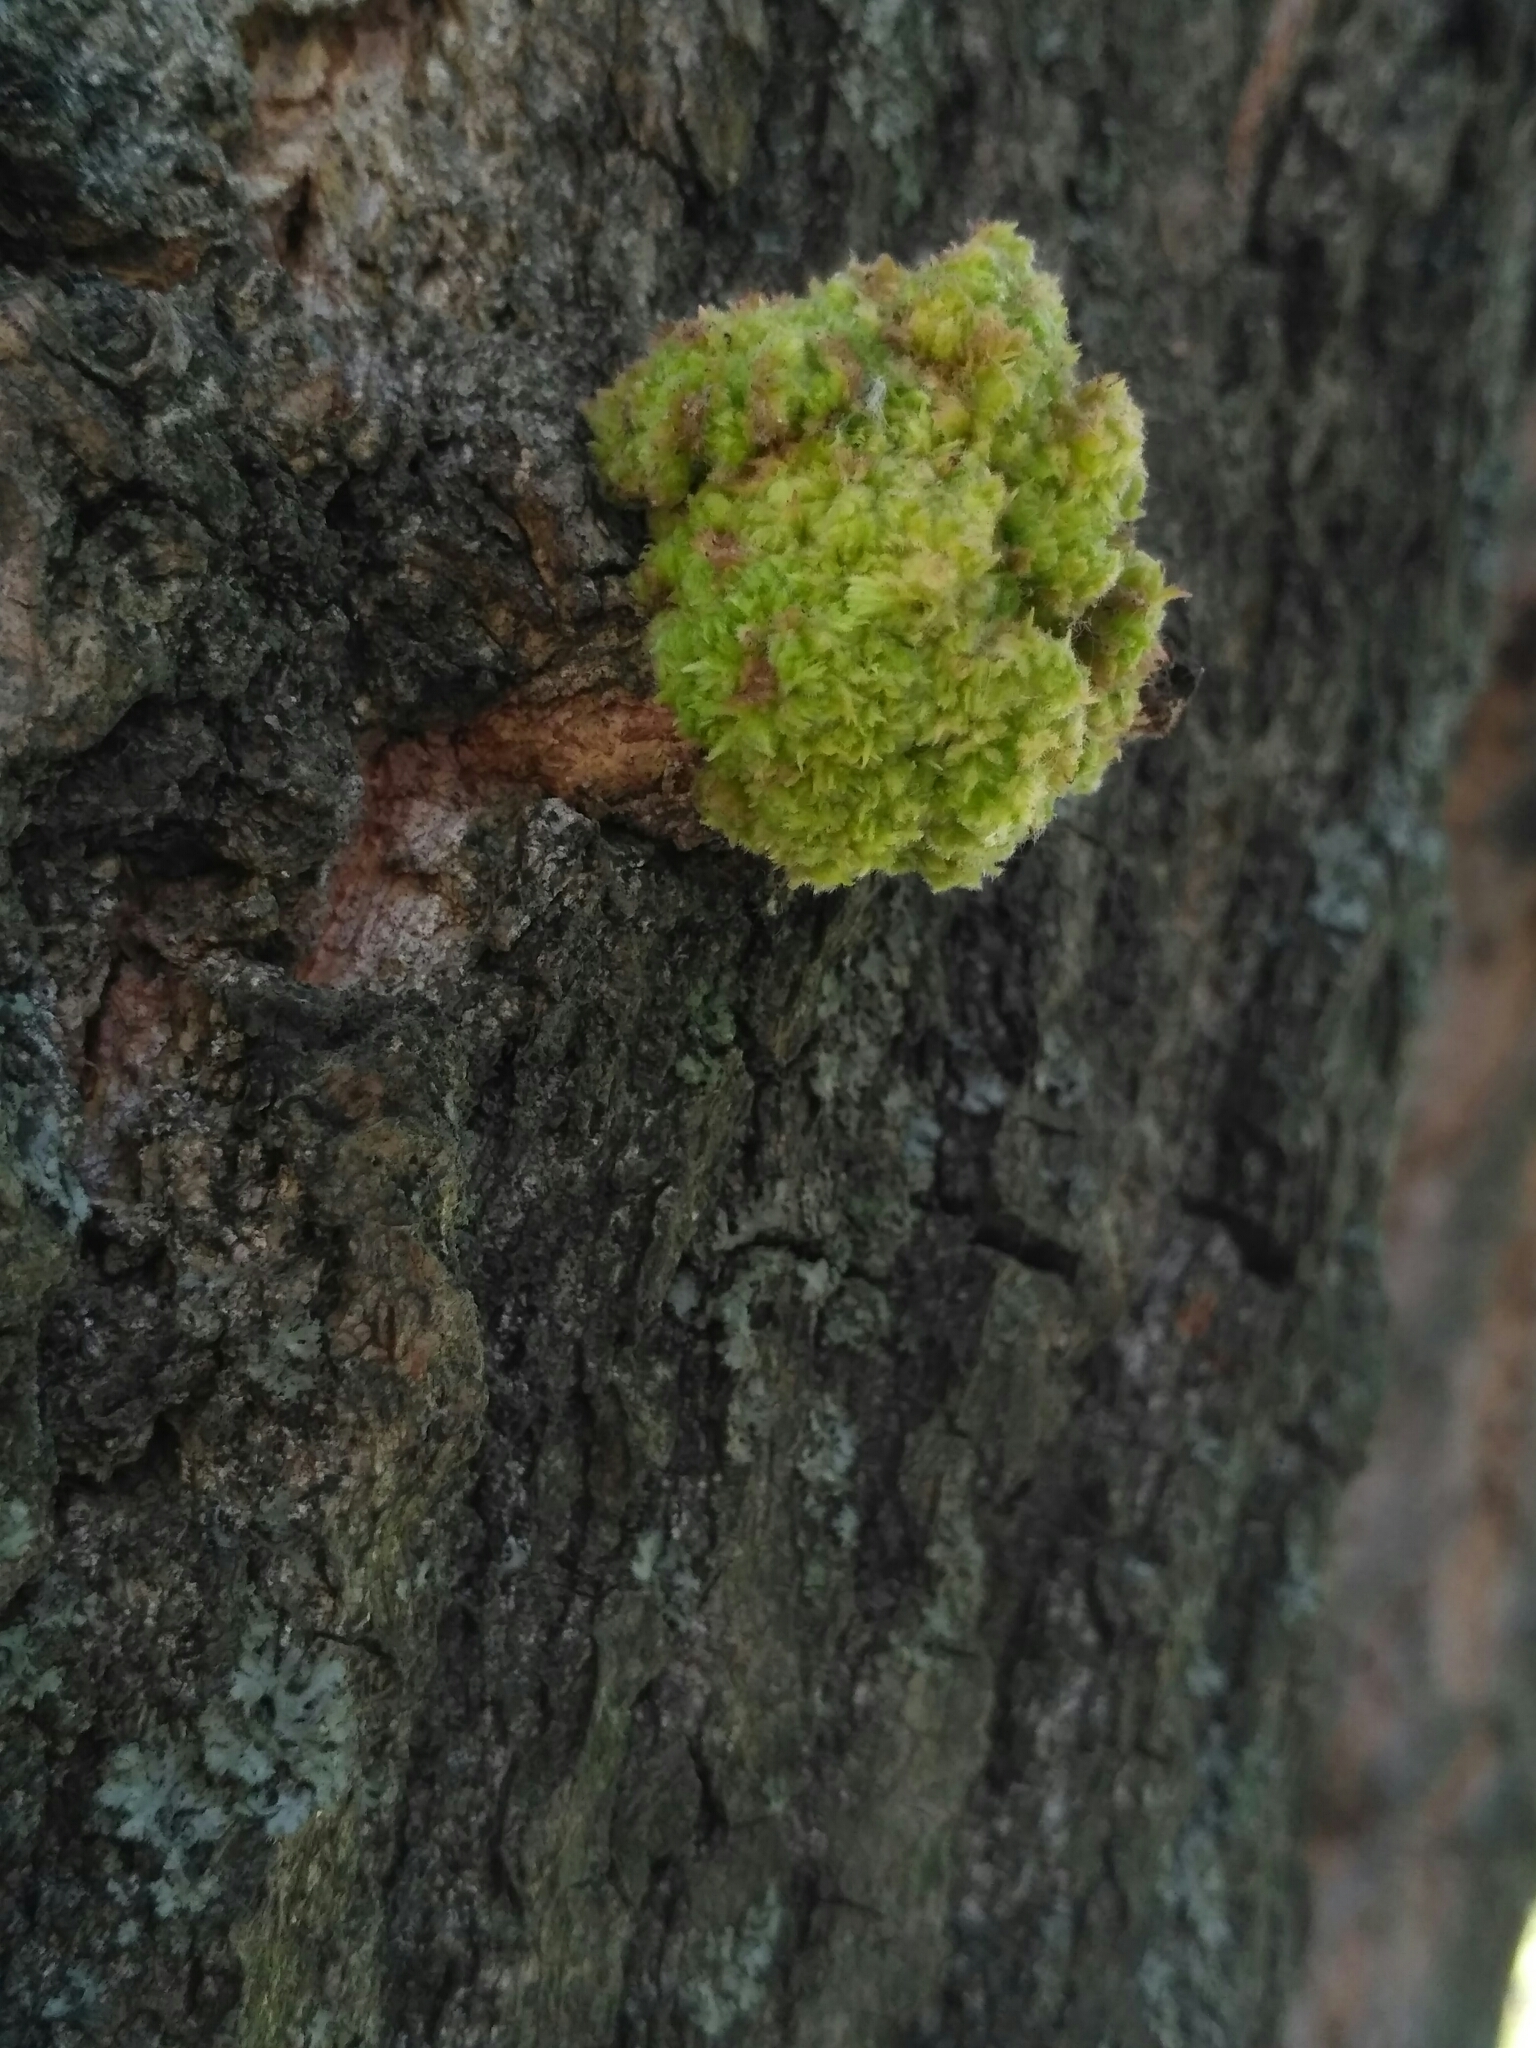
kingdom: Animalia
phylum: Arthropoda
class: Arachnida
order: Trombidiformes
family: Eriophyidae
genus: Aceria
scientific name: Aceria populi
